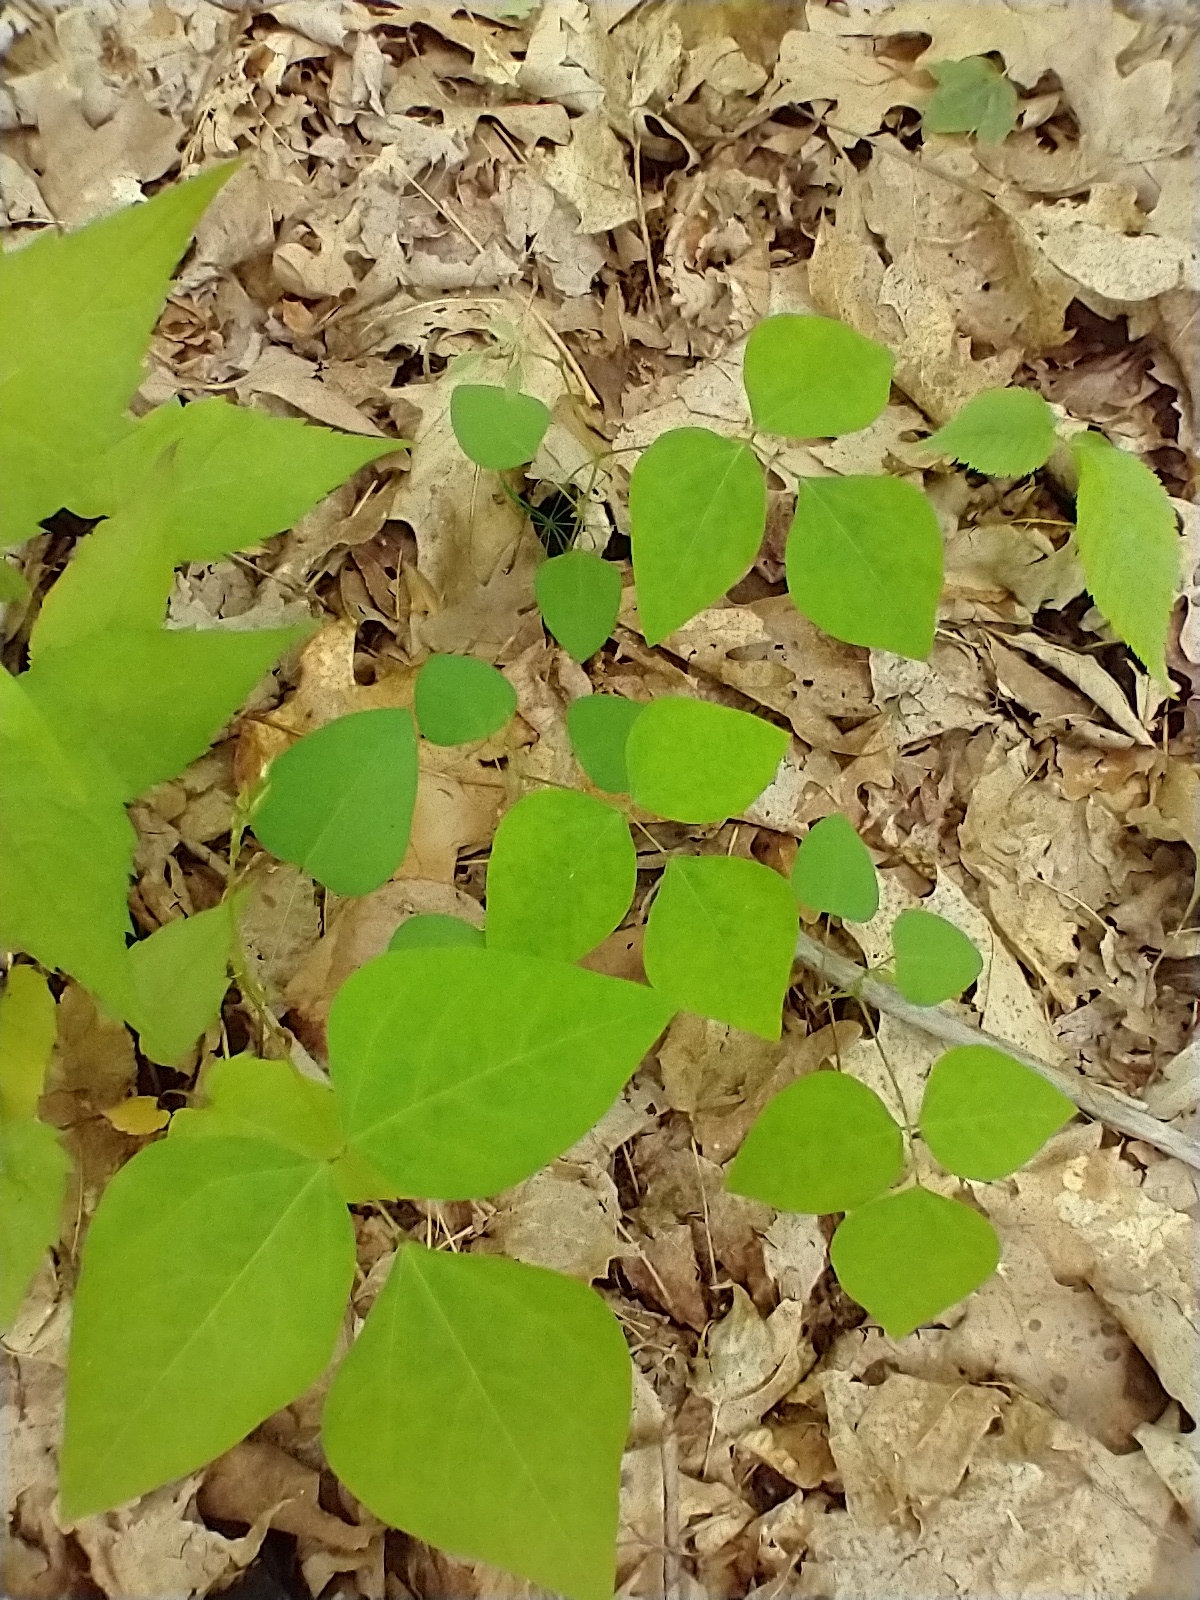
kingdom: Plantae
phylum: Tracheophyta
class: Magnoliopsida
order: Fabales
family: Fabaceae
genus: Amphicarpaea
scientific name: Amphicarpaea bracteata
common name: American hog peanut
